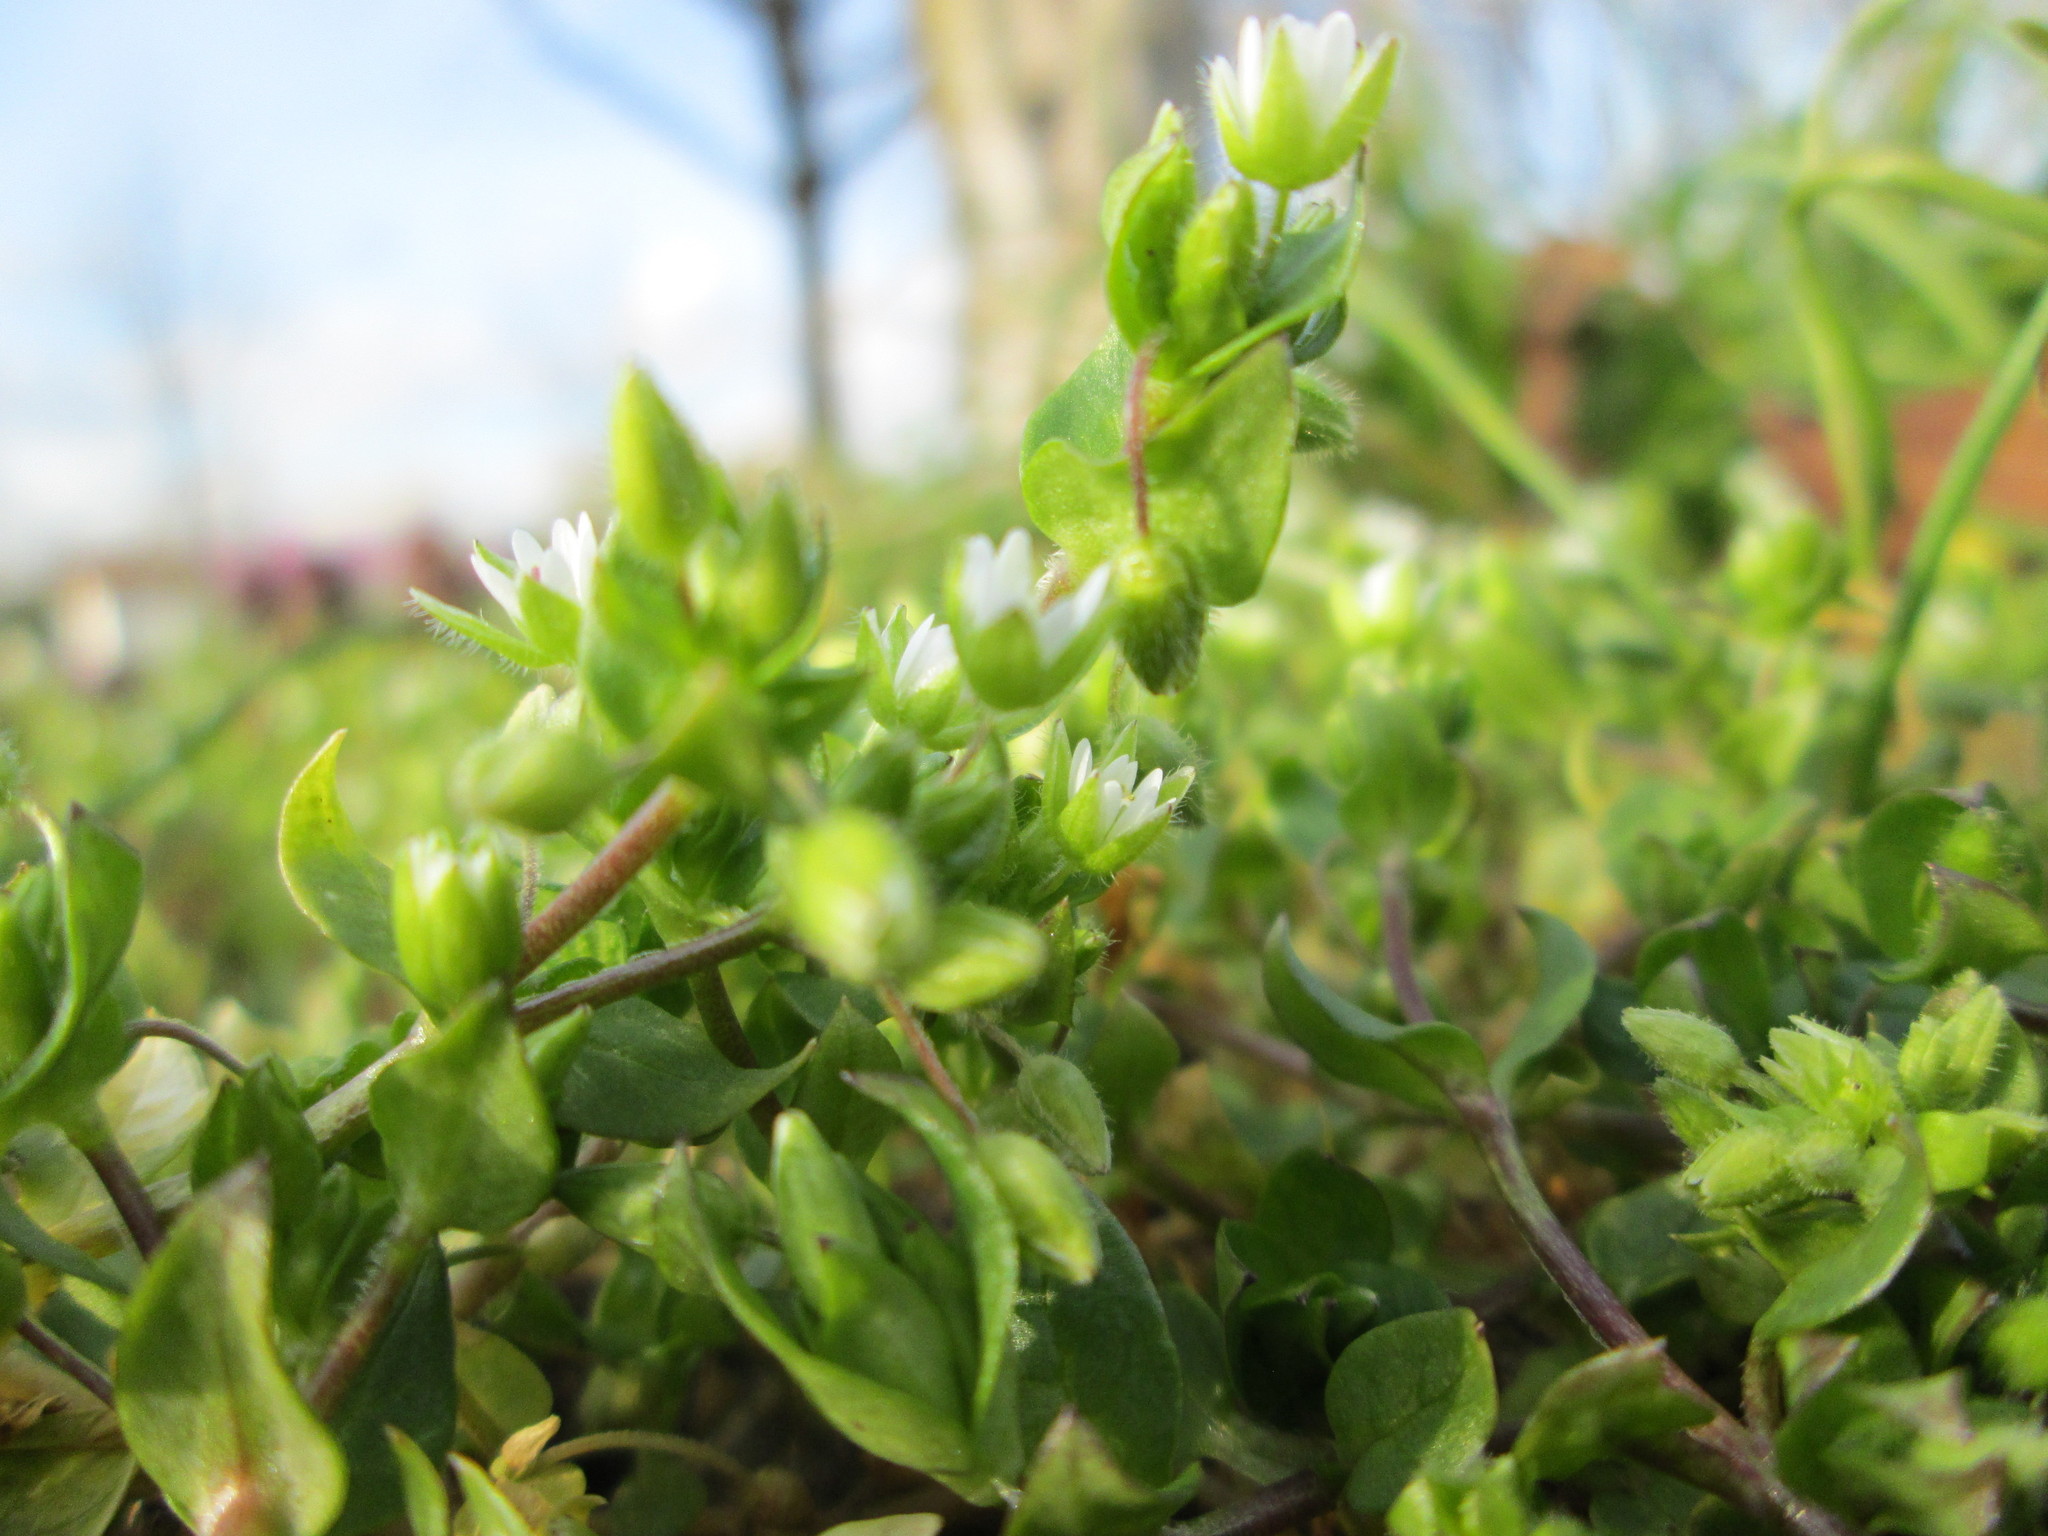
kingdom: Plantae
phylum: Tracheophyta
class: Magnoliopsida
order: Caryophyllales
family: Caryophyllaceae
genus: Stellaria
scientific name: Stellaria media
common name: Common chickweed
